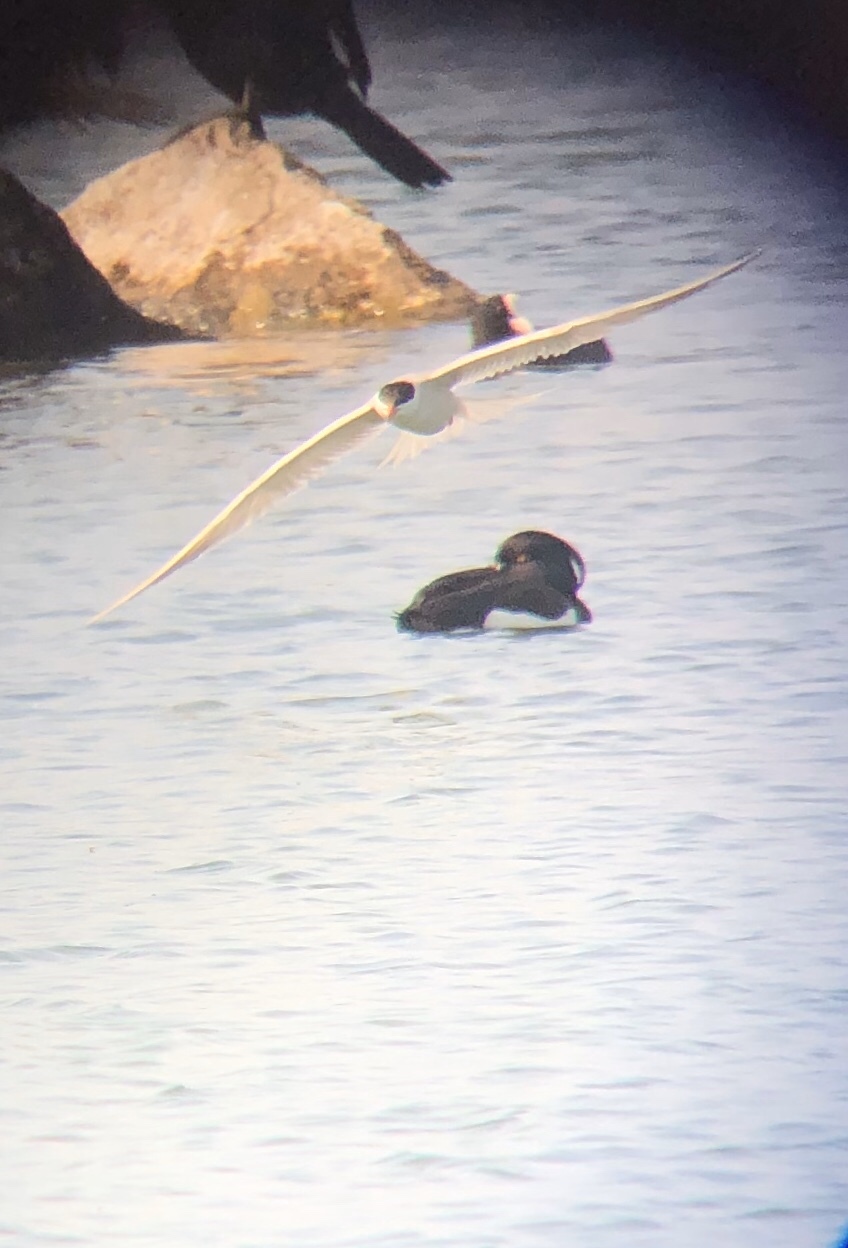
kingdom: Animalia
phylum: Chordata
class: Aves
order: Anseriformes
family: Anatidae
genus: Aythya
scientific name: Aythya fuligula
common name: Tufted duck
